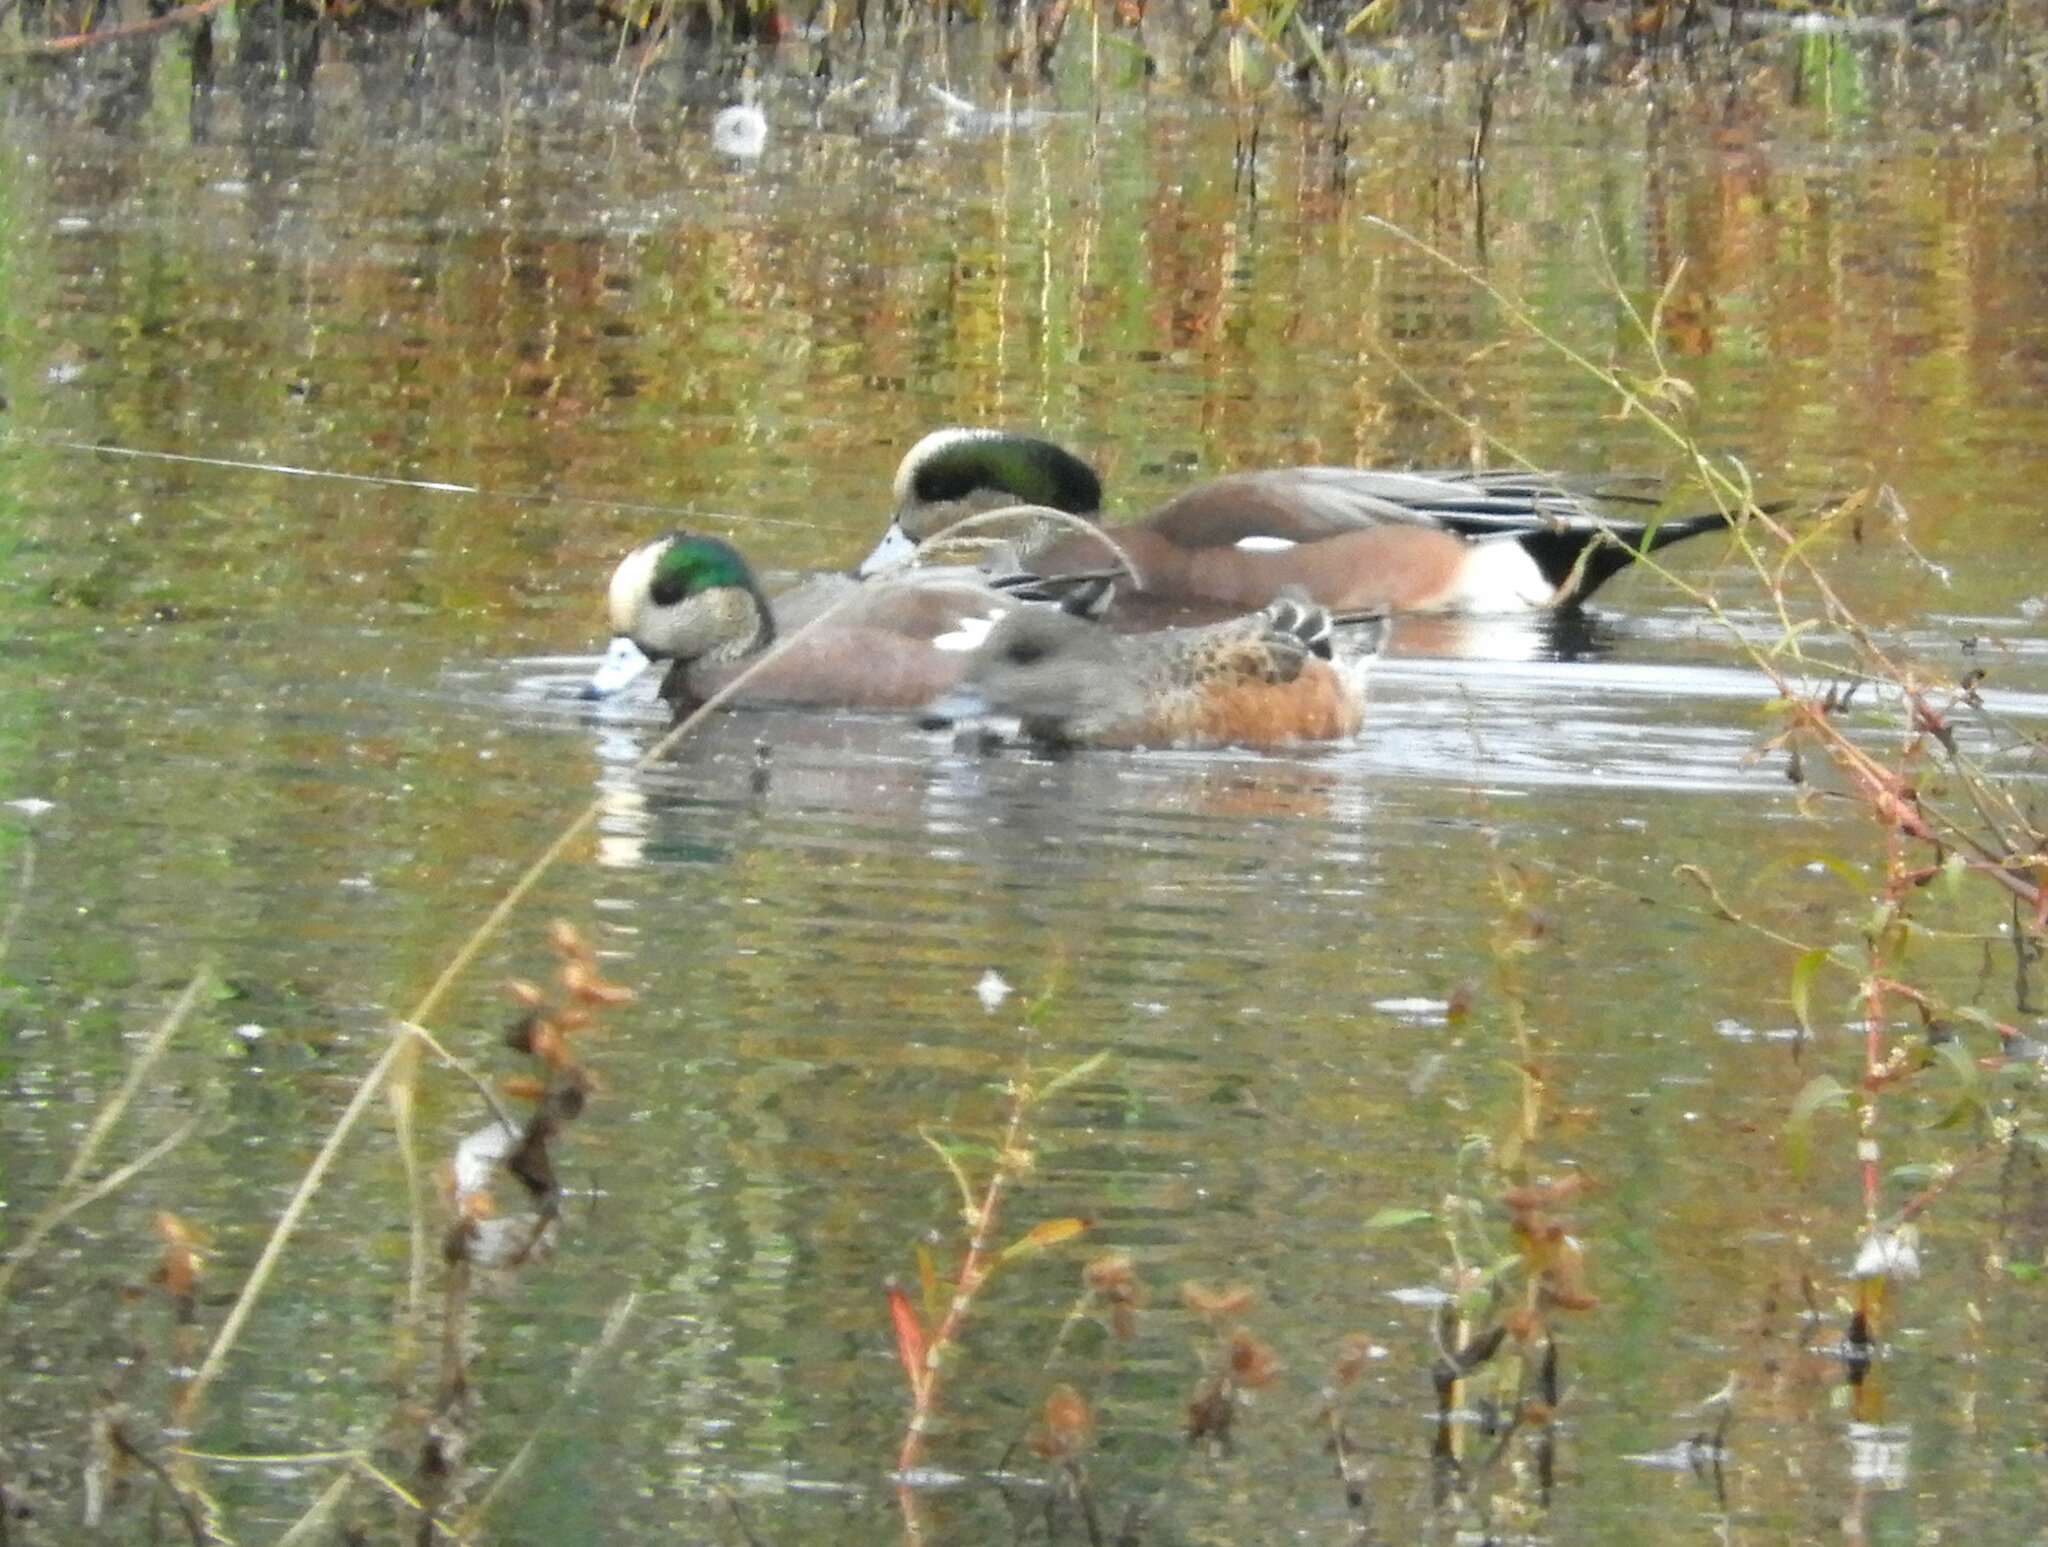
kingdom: Animalia
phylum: Chordata
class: Aves
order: Anseriformes
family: Anatidae
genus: Mareca
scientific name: Mareca americana
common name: American wigeon
